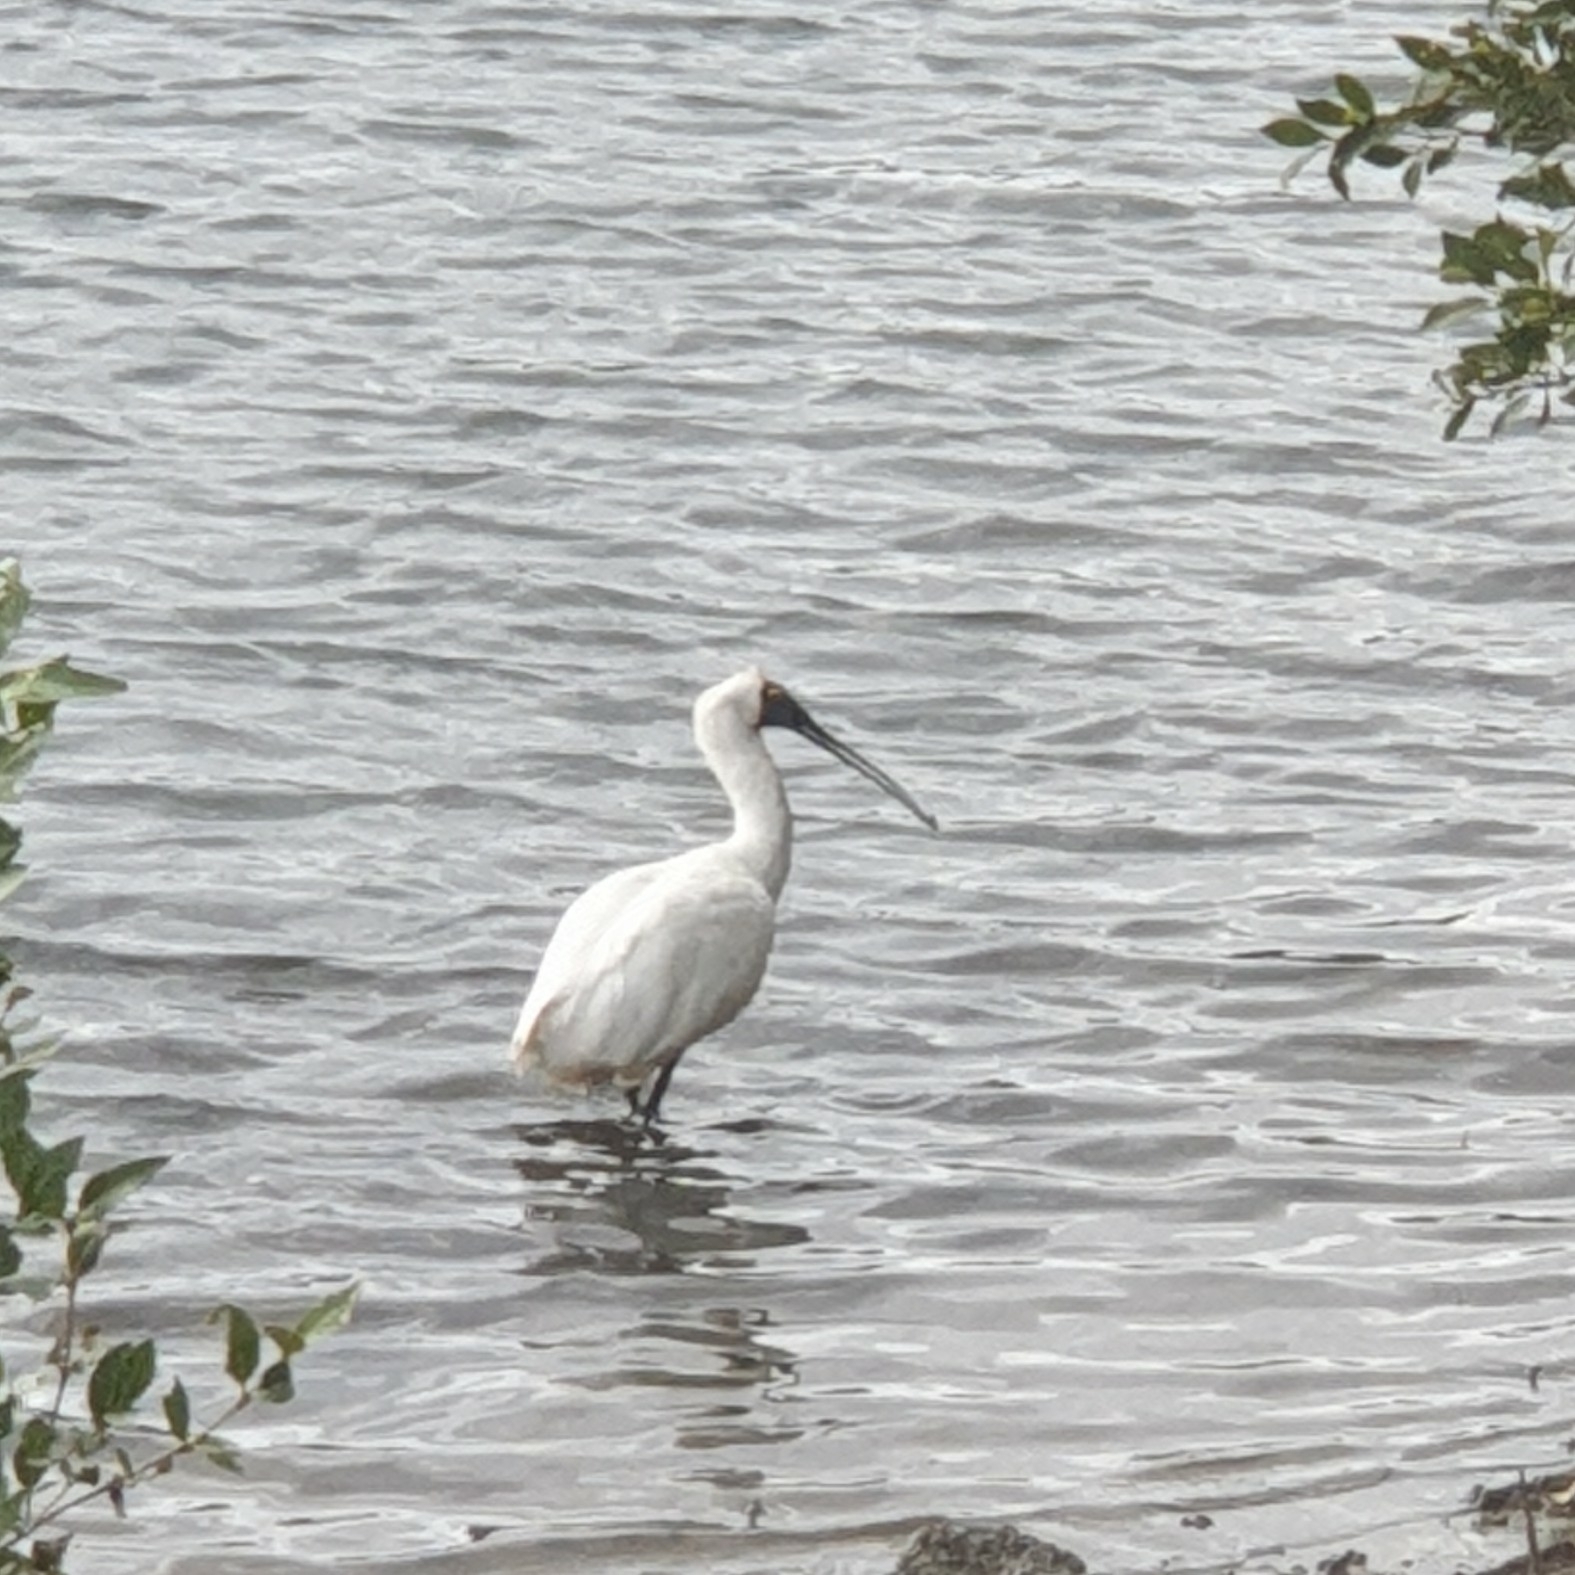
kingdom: Animalia
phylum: Chordata
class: Aves
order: Pelecaniformes
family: Threskiornithidae
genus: Platalea
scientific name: Platalea regia
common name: Royal spoonbill
